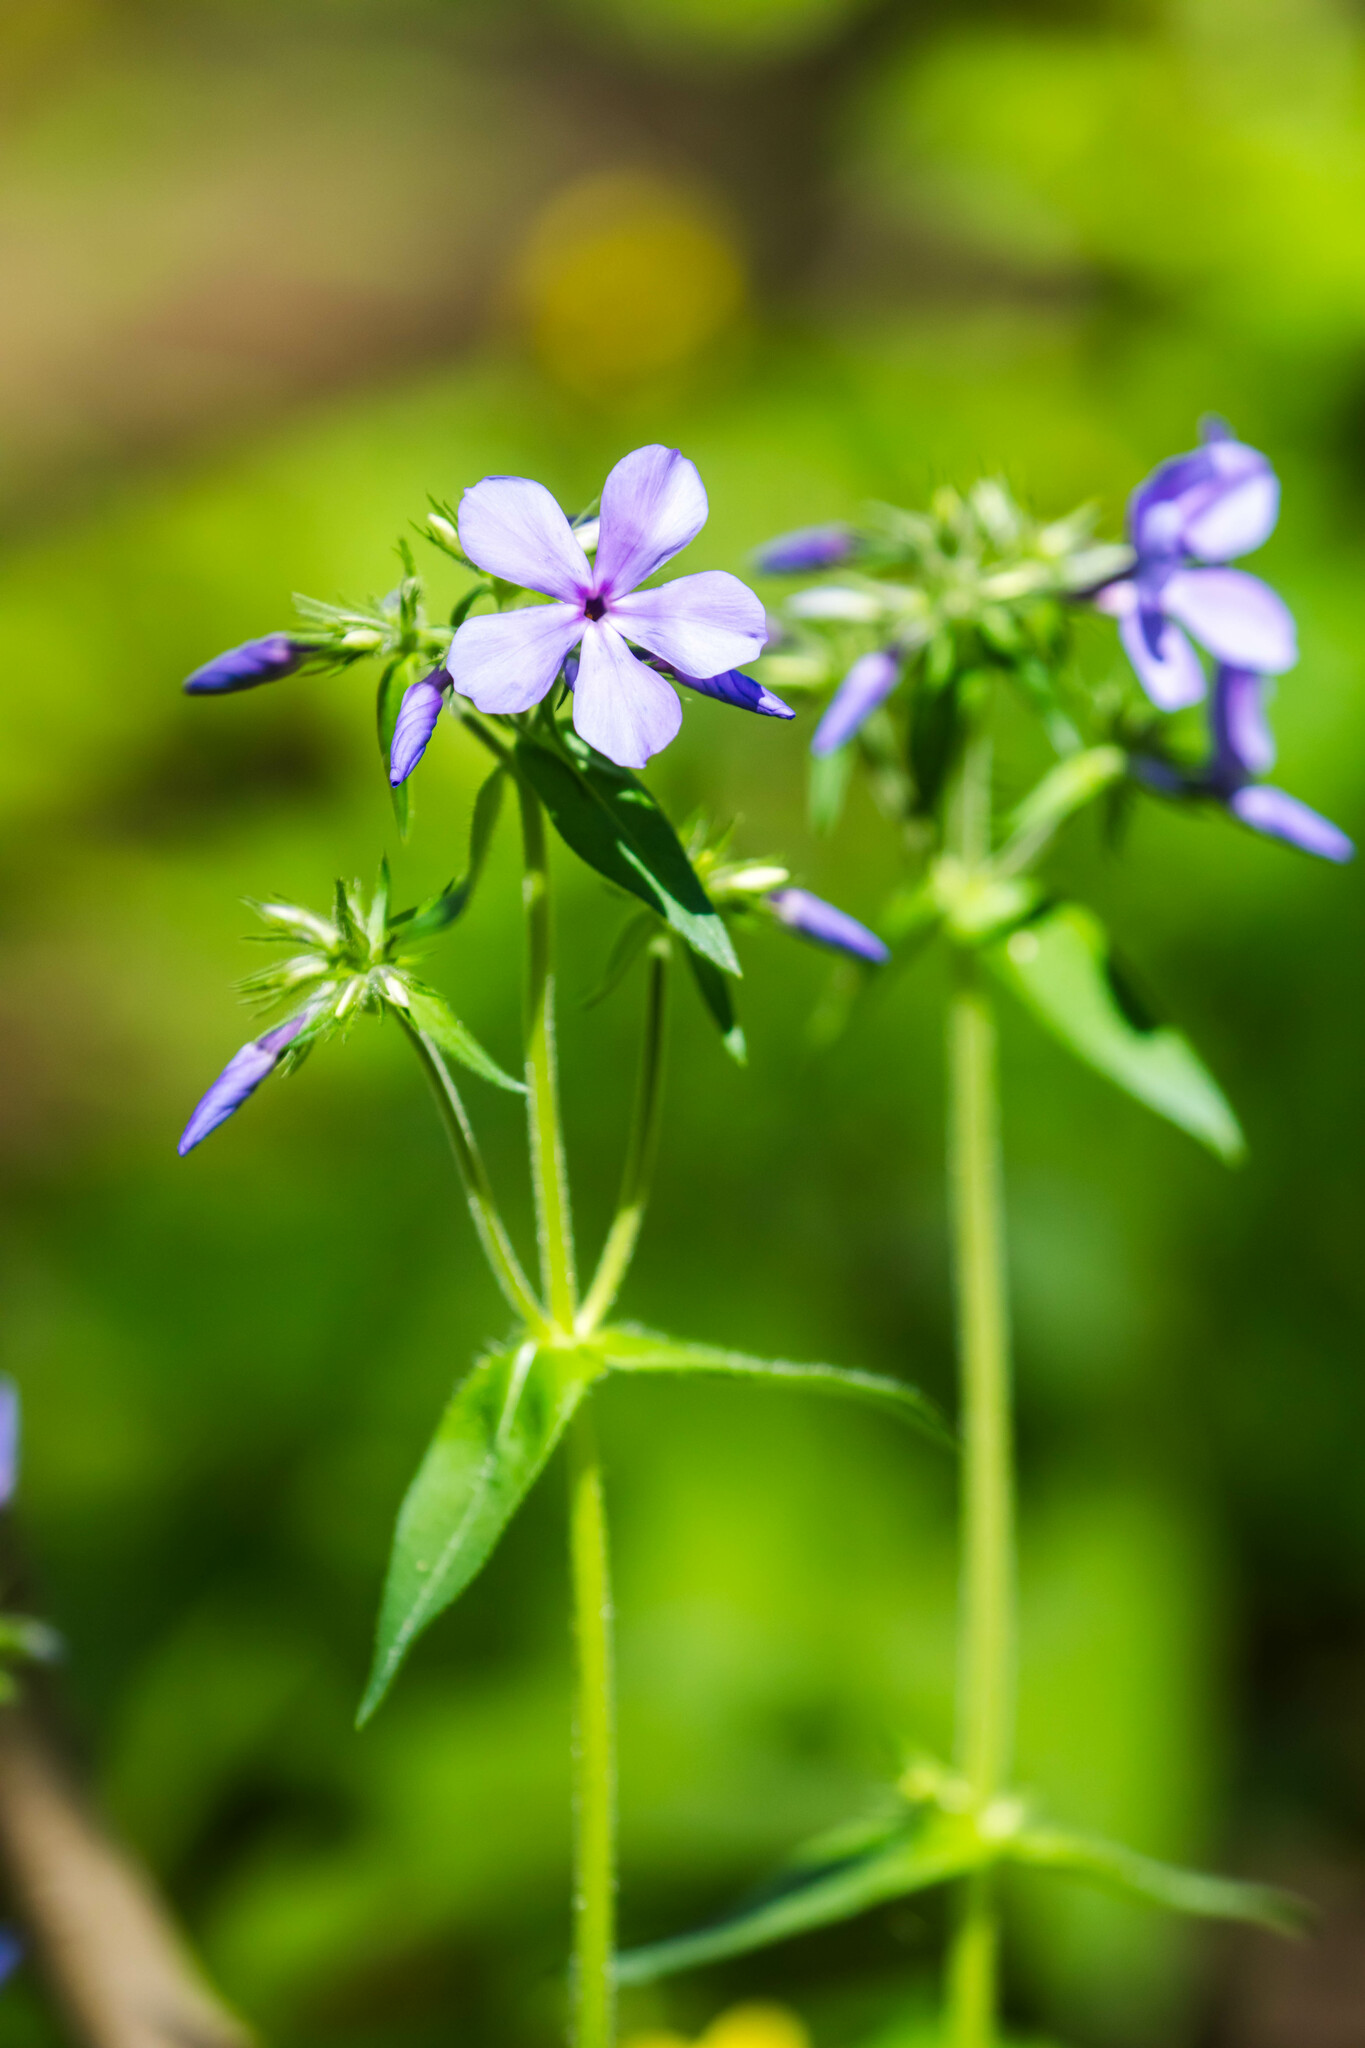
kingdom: Plantae
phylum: Tracheophyta
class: Magnoliopsida
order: Ericales
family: Polemoniaceae
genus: Phlox
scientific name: Phlox divaricata
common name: Blue phlox
